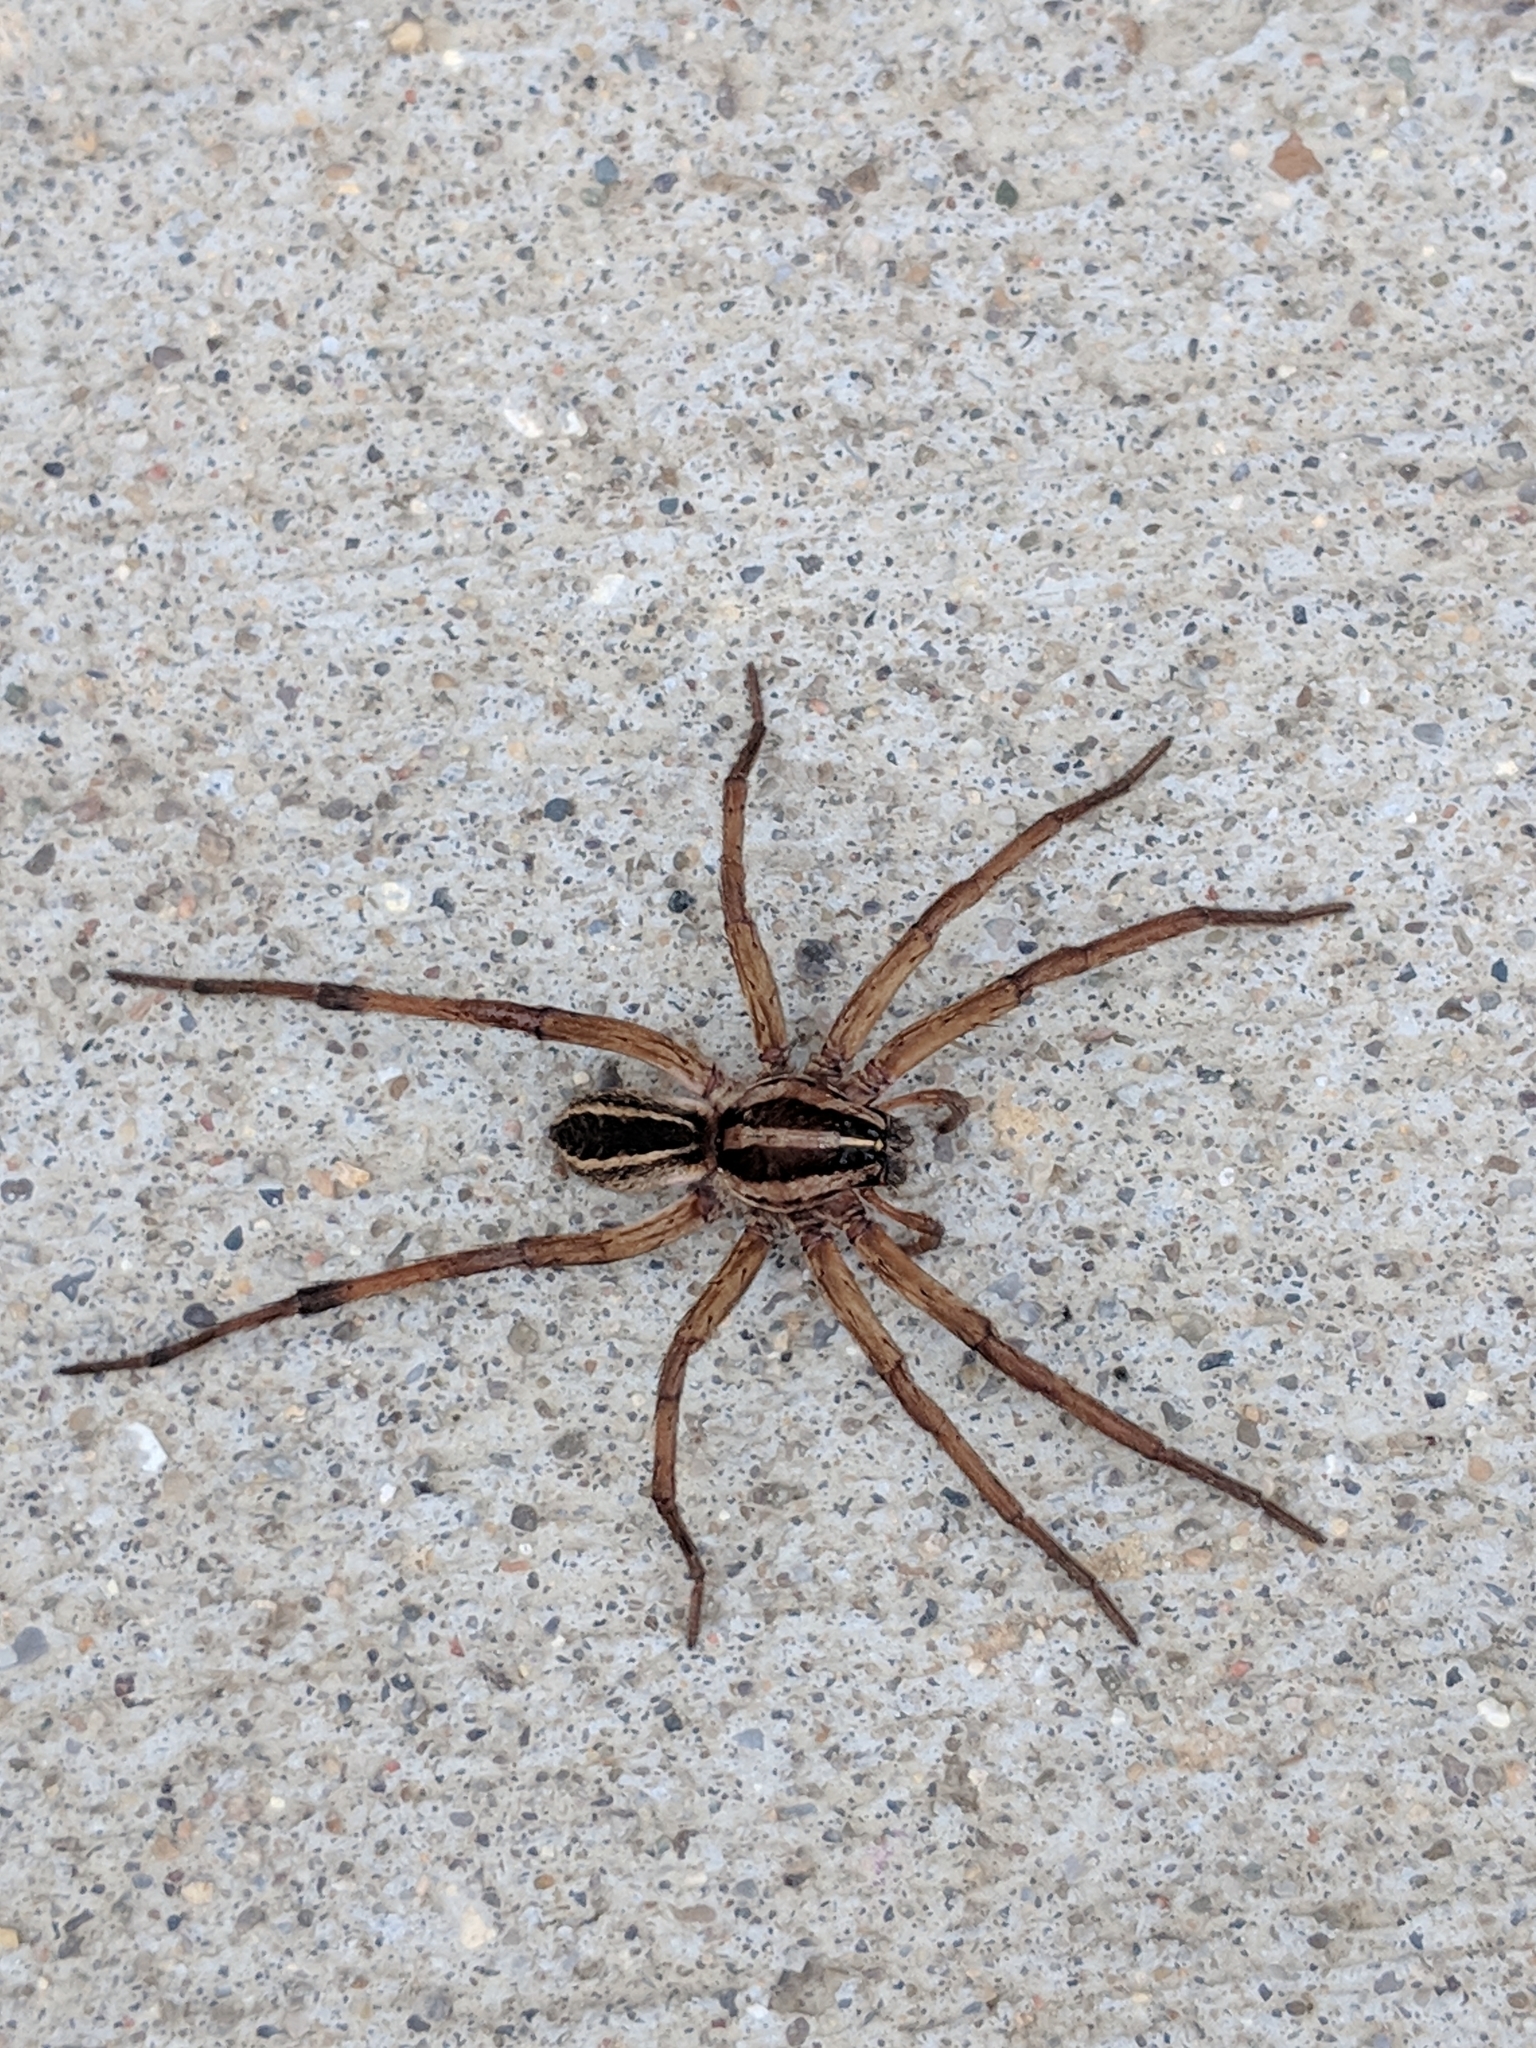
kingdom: Animalia
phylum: Arthropoda
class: Arachnida
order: Araneae
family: Lycosidae
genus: Rabidosa
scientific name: Rabidosa rabida
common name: Rabid wolf spider
